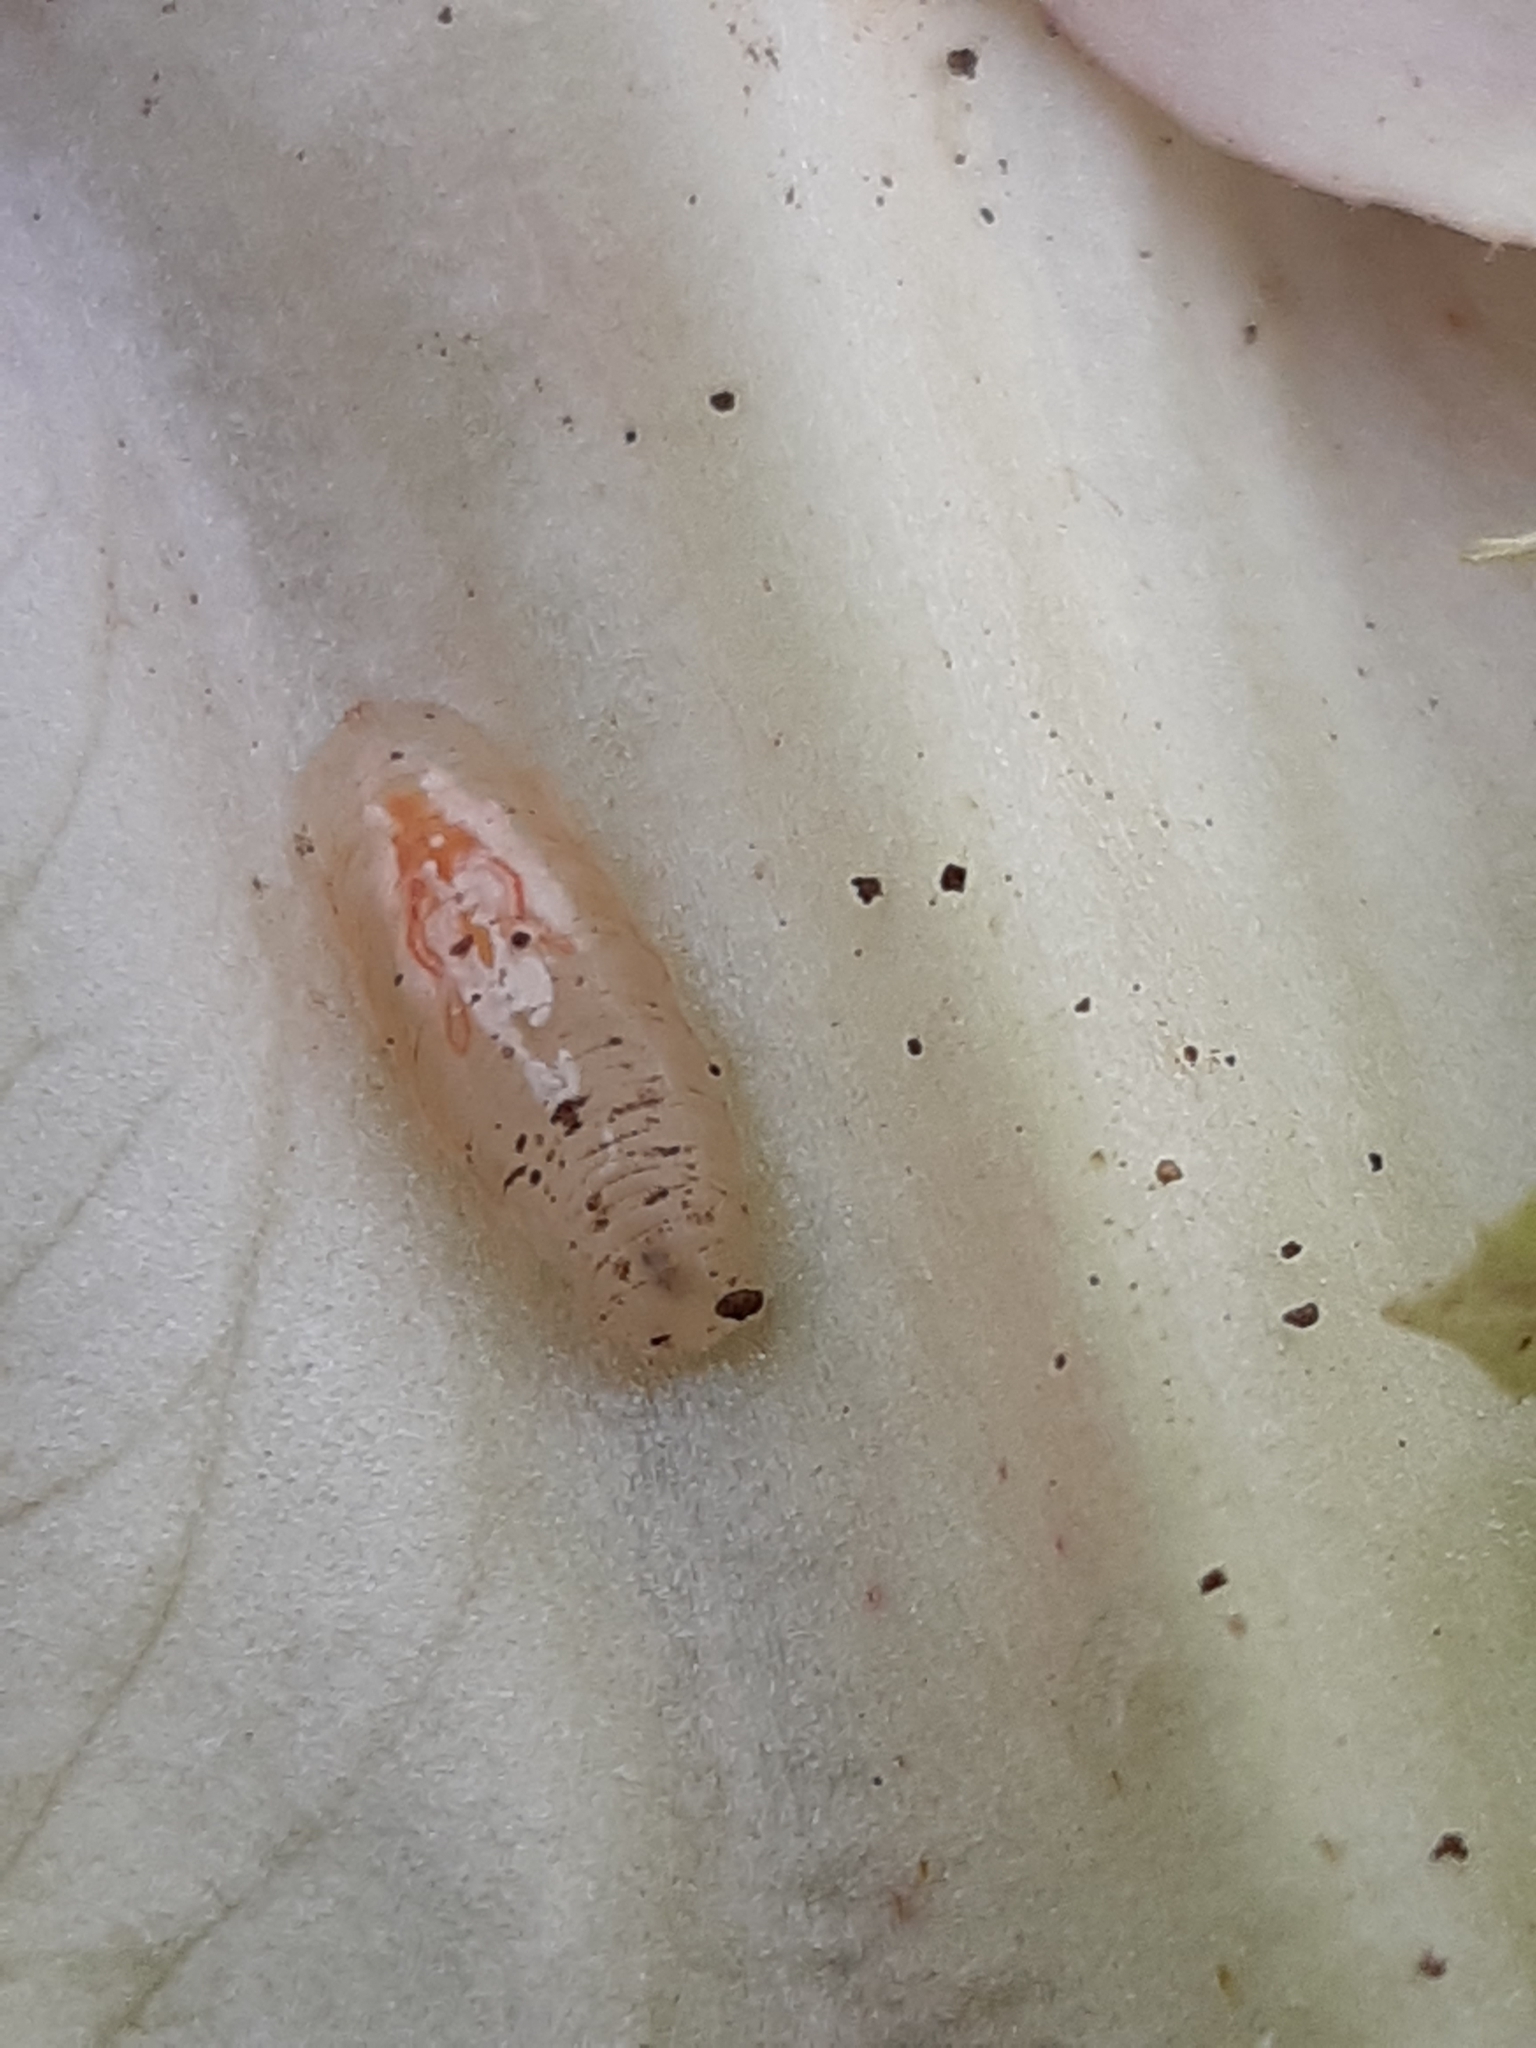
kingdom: Animalia
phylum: Arthropoda
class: Insecta
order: Diptera
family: Syrphidae
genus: Episyrphus
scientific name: Episyrphus balteatus
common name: Marmalade hoverfly
